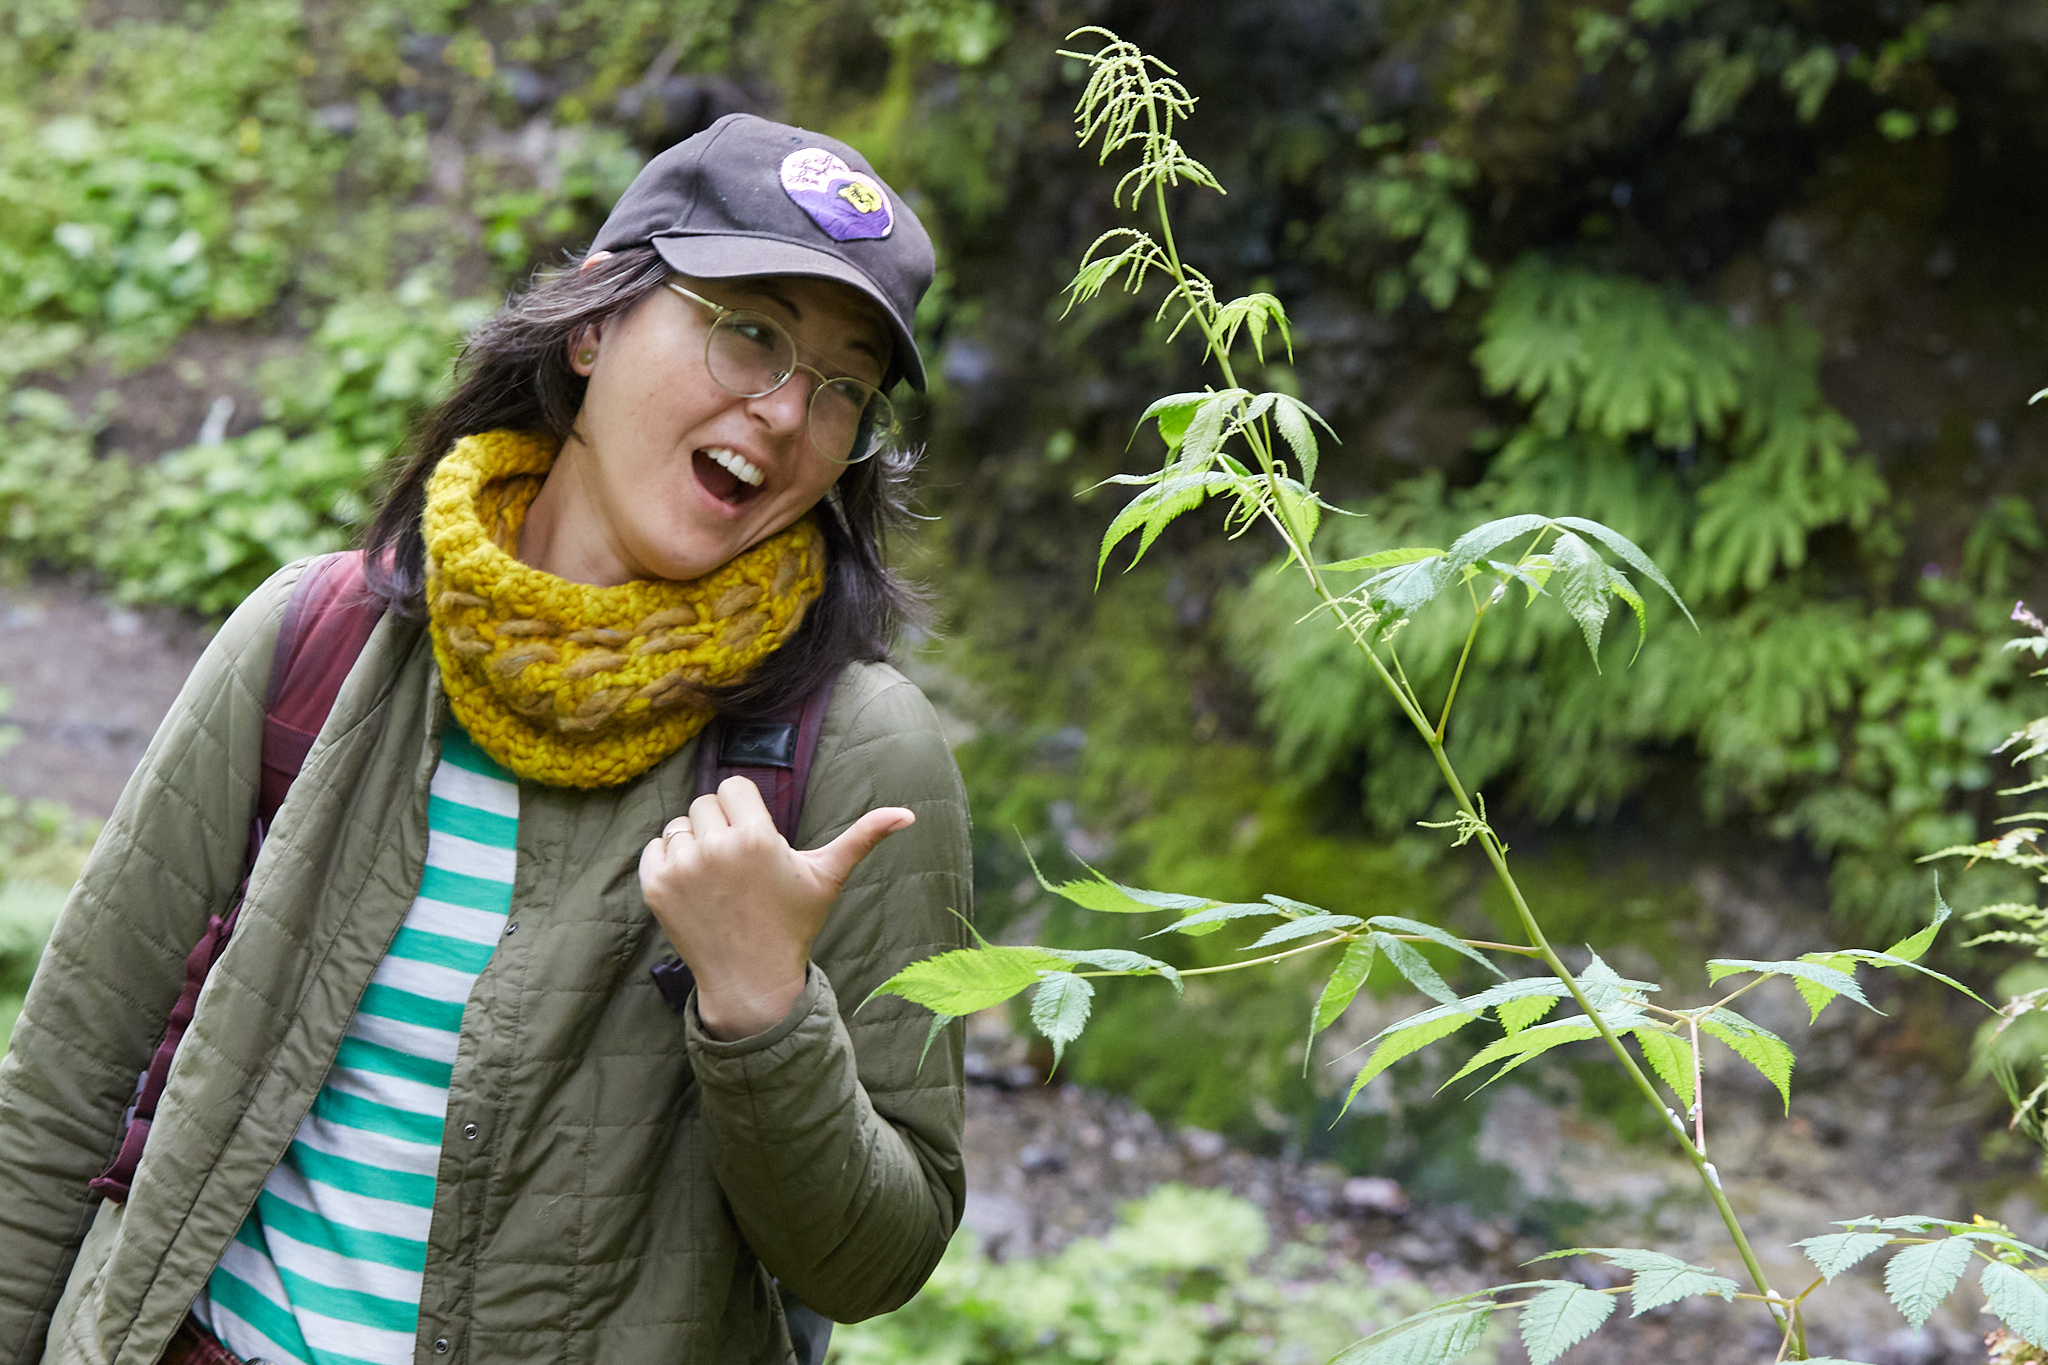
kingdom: Plantae
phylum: Tracheophyta
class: Magnoliopsida
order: Rosales
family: Rosaceae
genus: Aruncus
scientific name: Aruncus dioicus
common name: Buck's-beard
